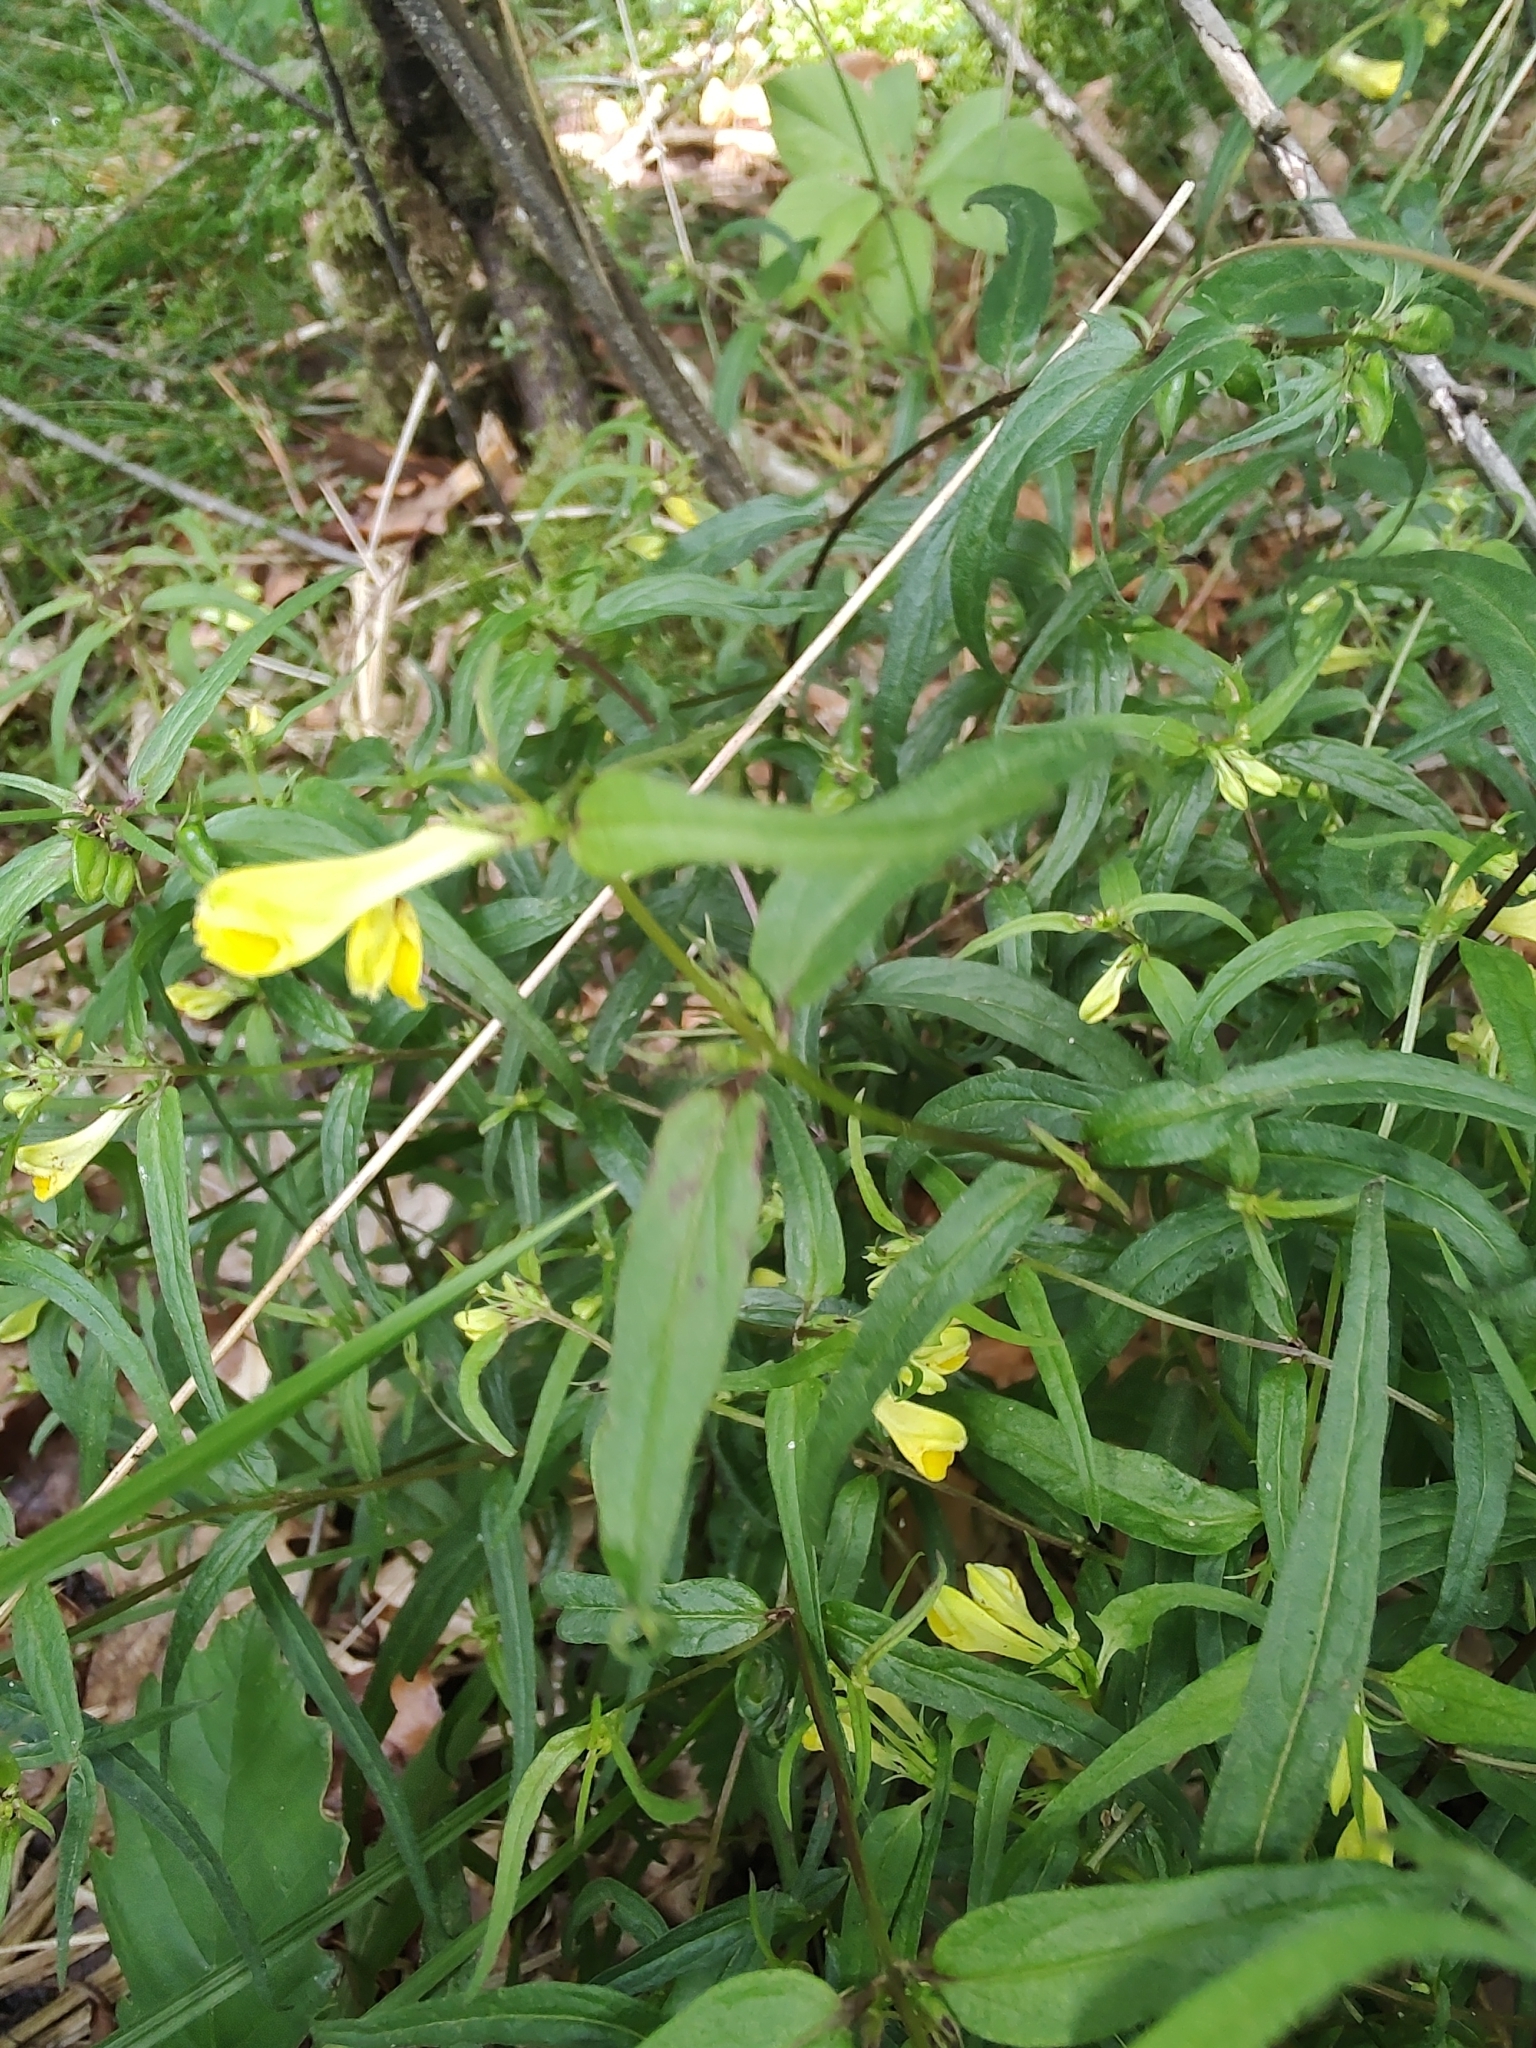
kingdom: Plantae
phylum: Tracheophyta
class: Magnoliopsida
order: Lamiales
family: Orobanchaceae
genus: Melampyrum
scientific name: Melampyrum pratense
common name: Common cow-wheat
